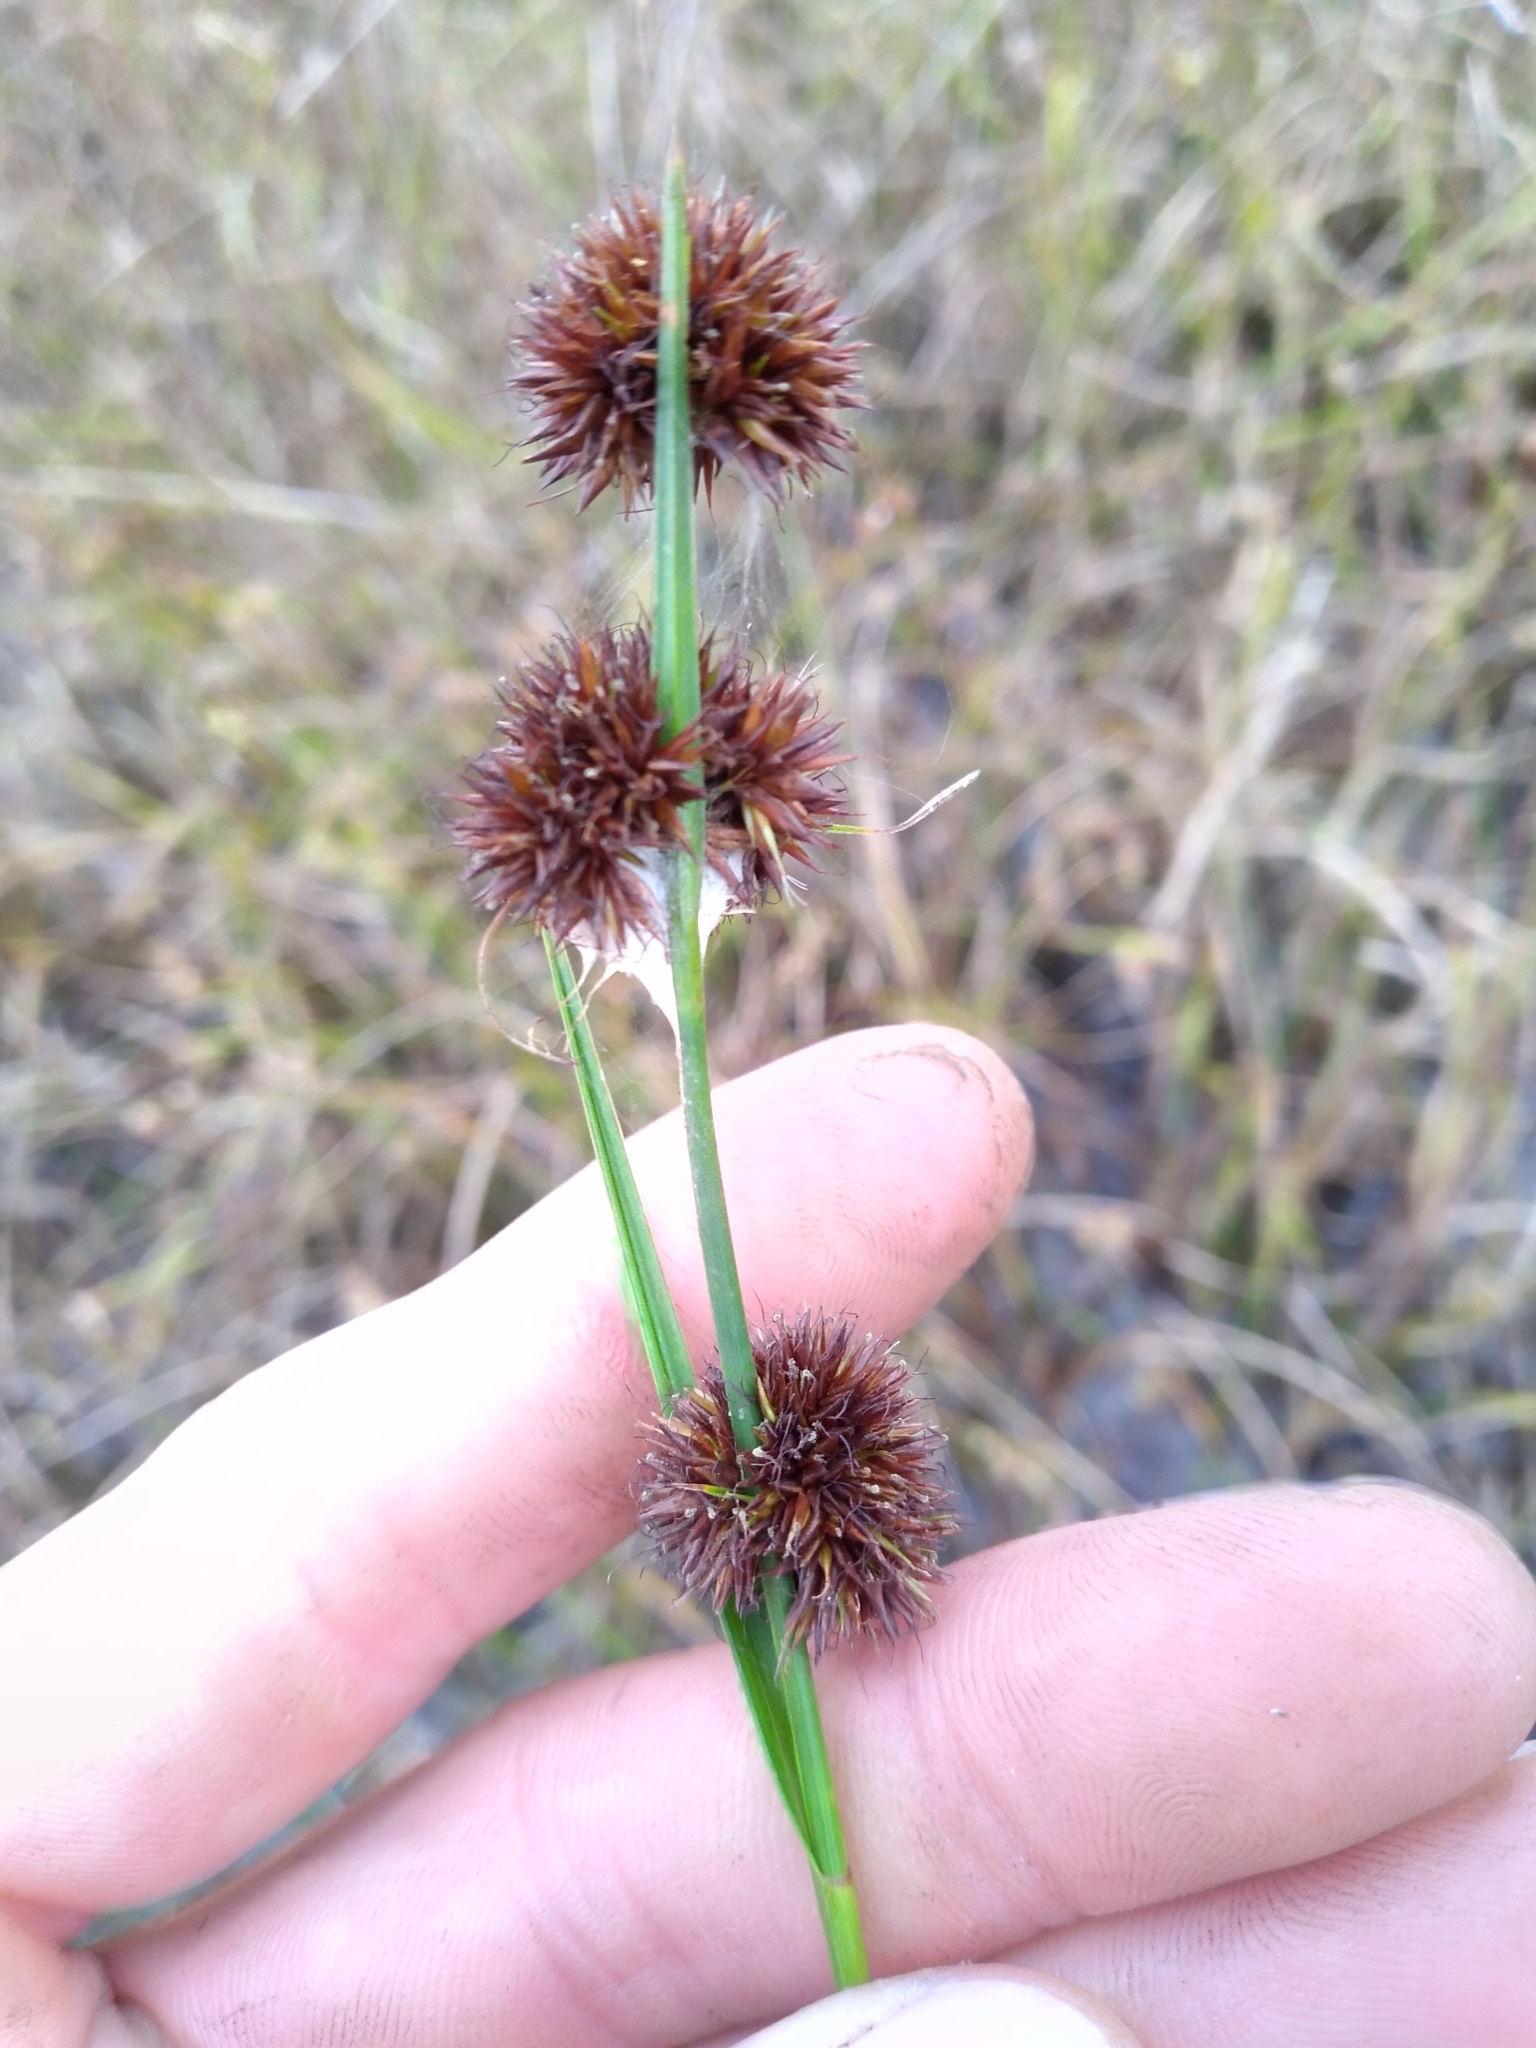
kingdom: Plantae
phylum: Tracheophyta
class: Liliopsida
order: Poales
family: Cyperaceae
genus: Rhynchospora
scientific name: Rhynchospora cephalantha
